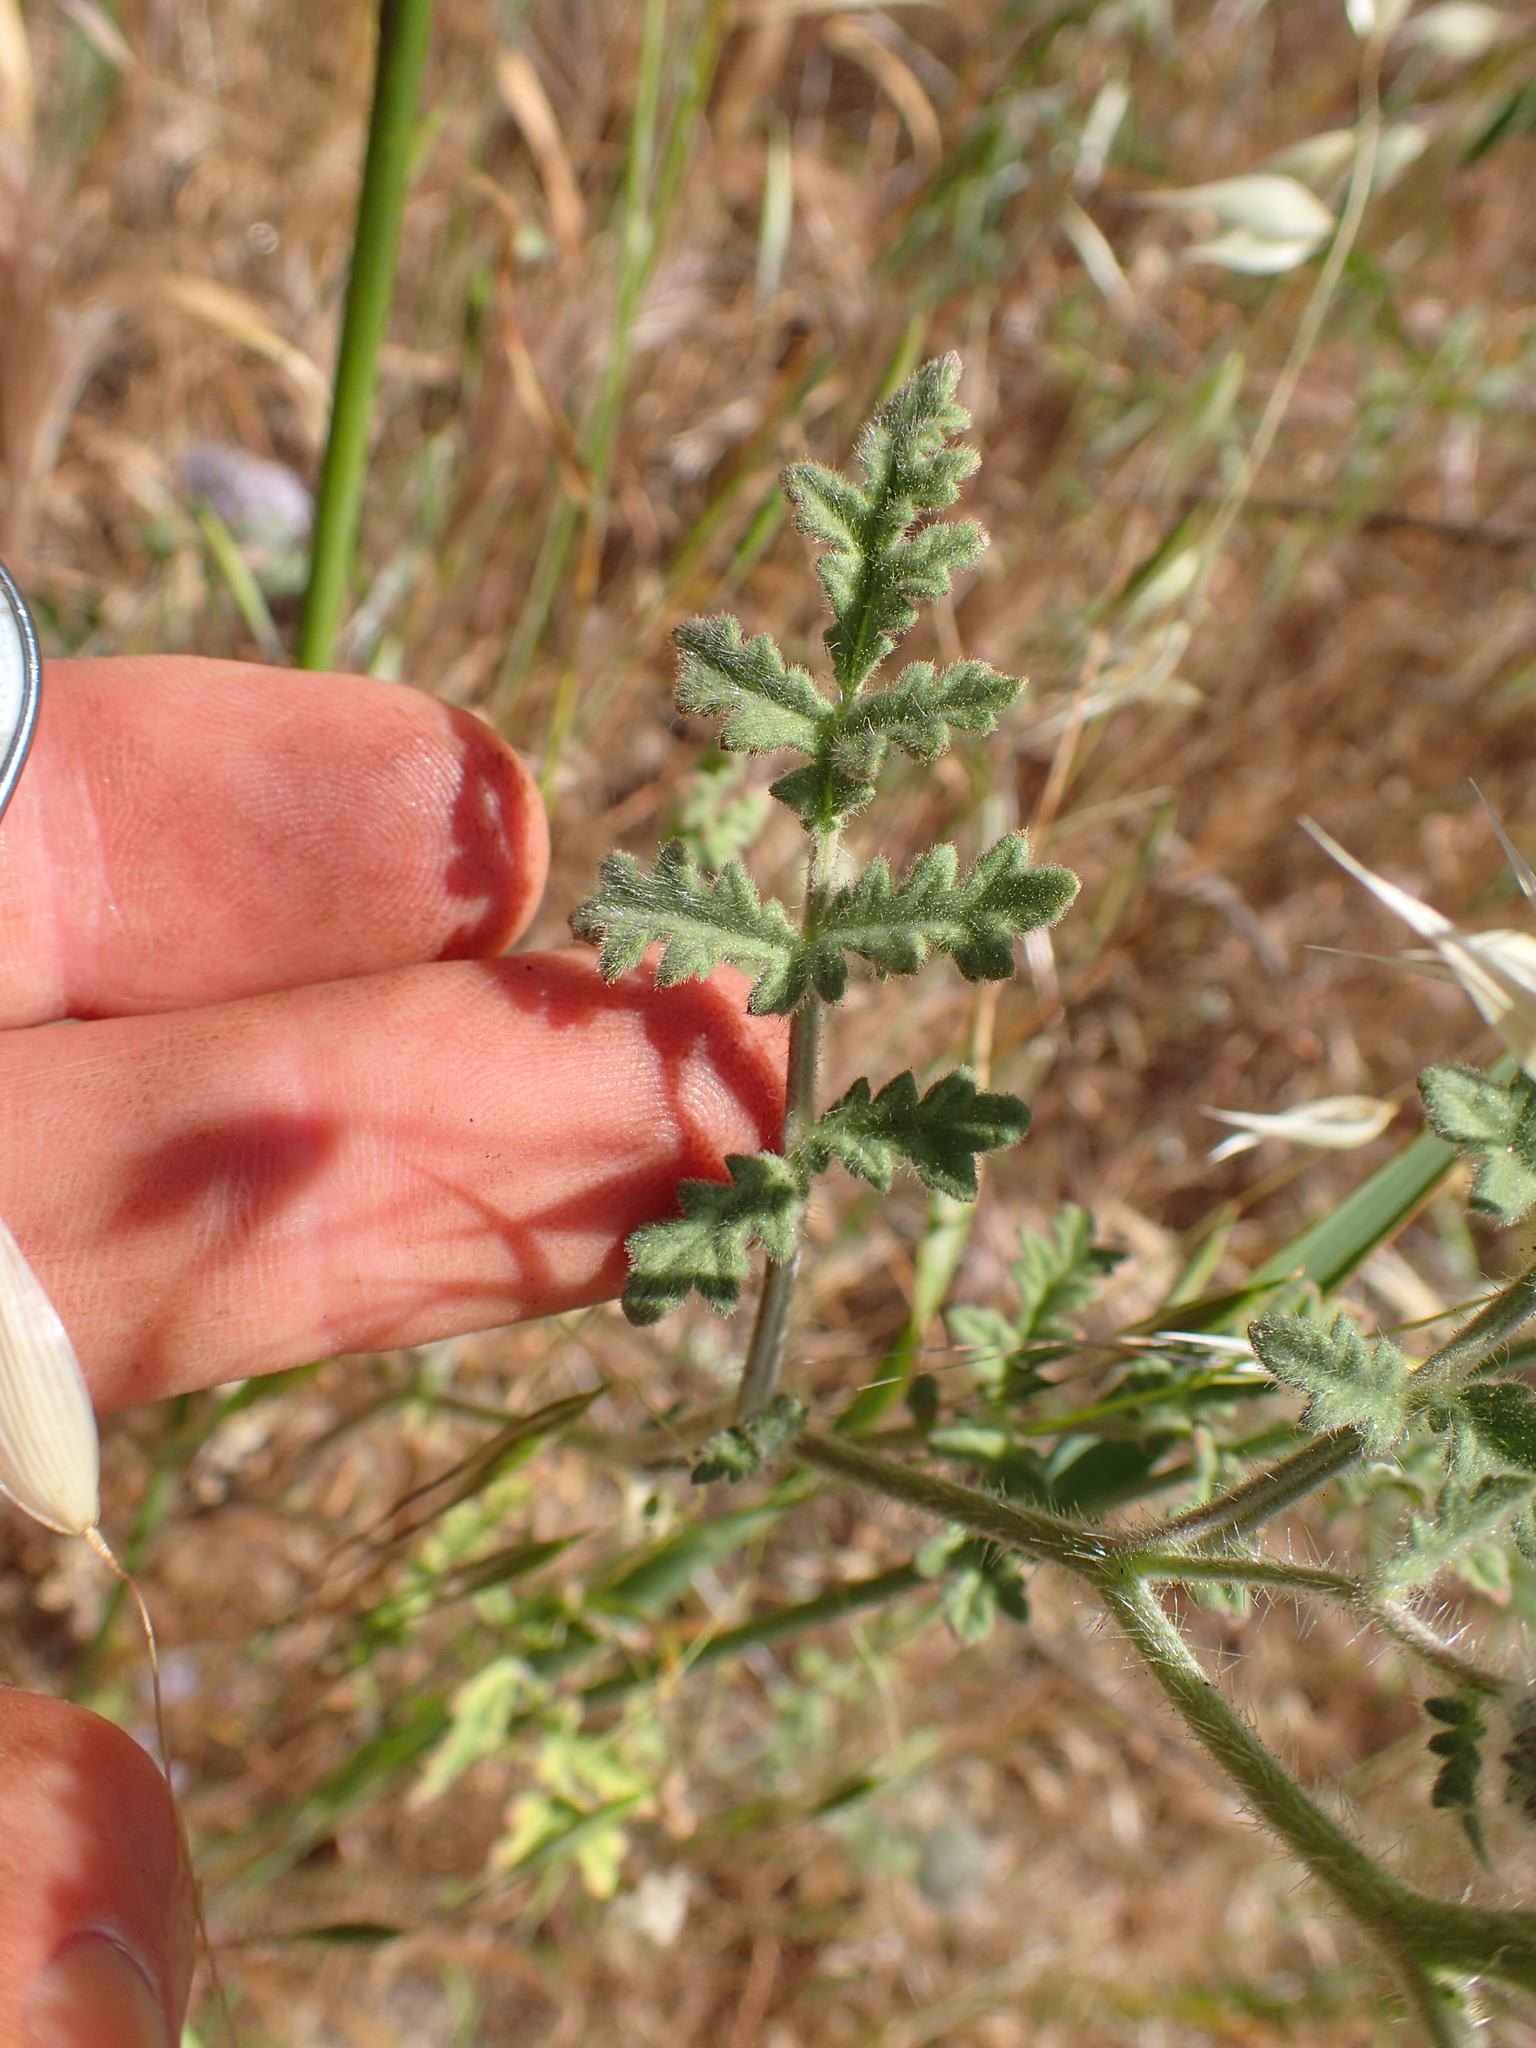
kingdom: Plantae
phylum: Tracheophyta
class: Magnoliopsida
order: Boraginales
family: Hydrophyllaceae
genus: Phacelia
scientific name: Phacelia hubbyi
